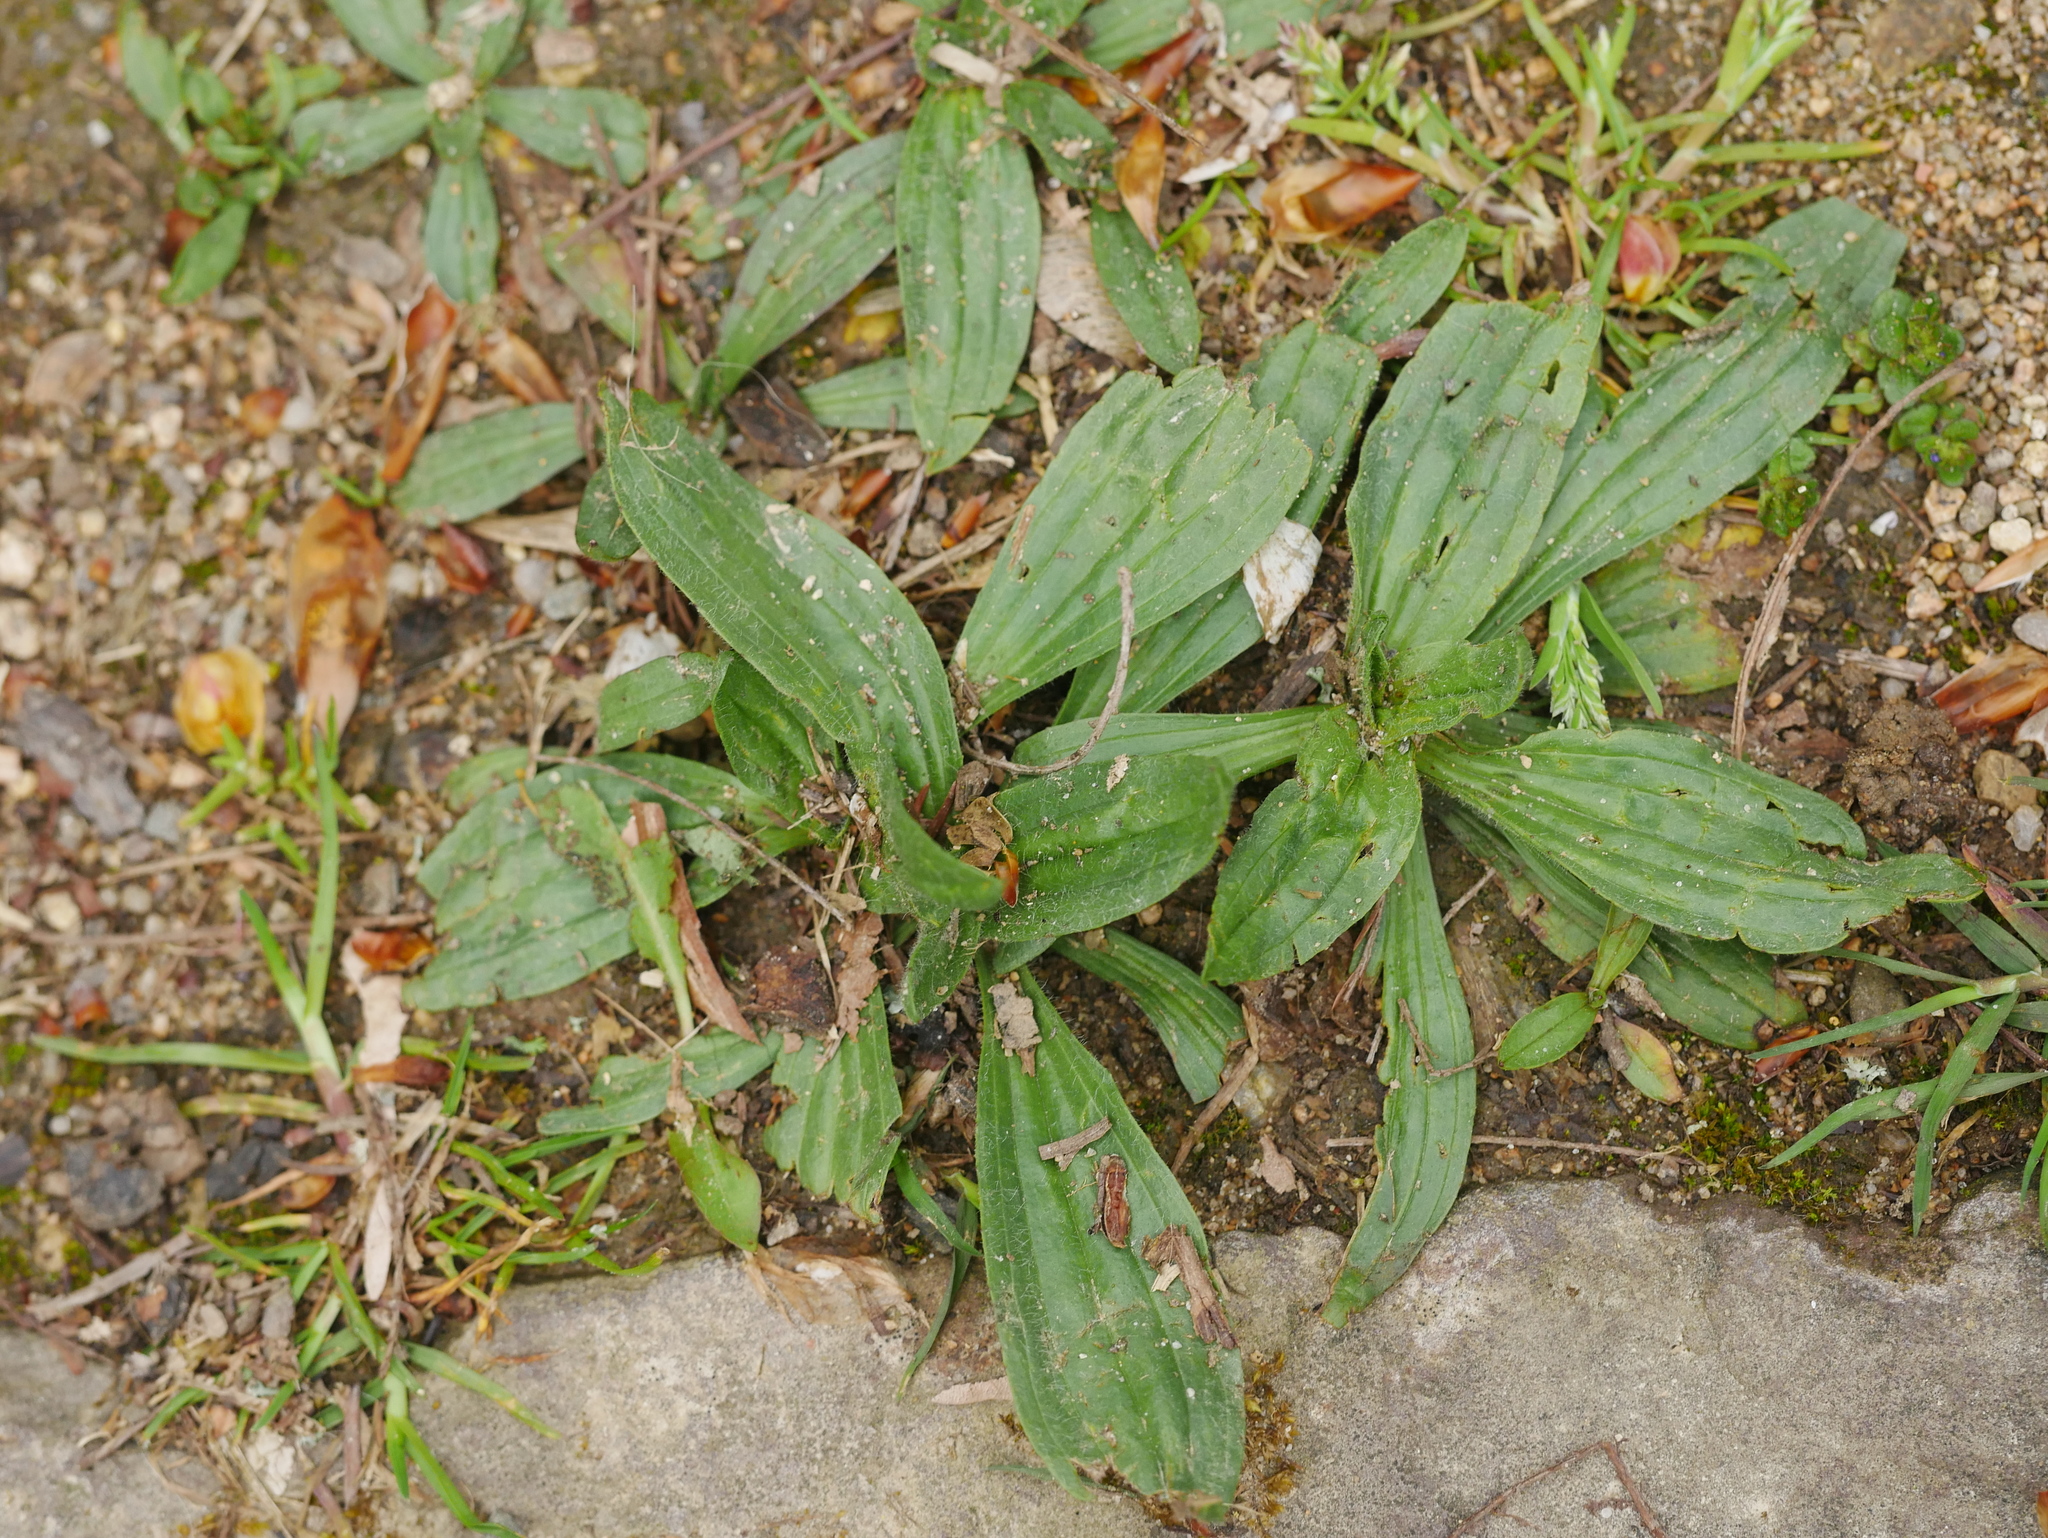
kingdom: Plantae
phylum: Tracheophyta
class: Magnoliopsida
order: Lamiales
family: Plantaginaceae
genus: Plantago
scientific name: Plantago lanceolata
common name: Ribwort plantain
